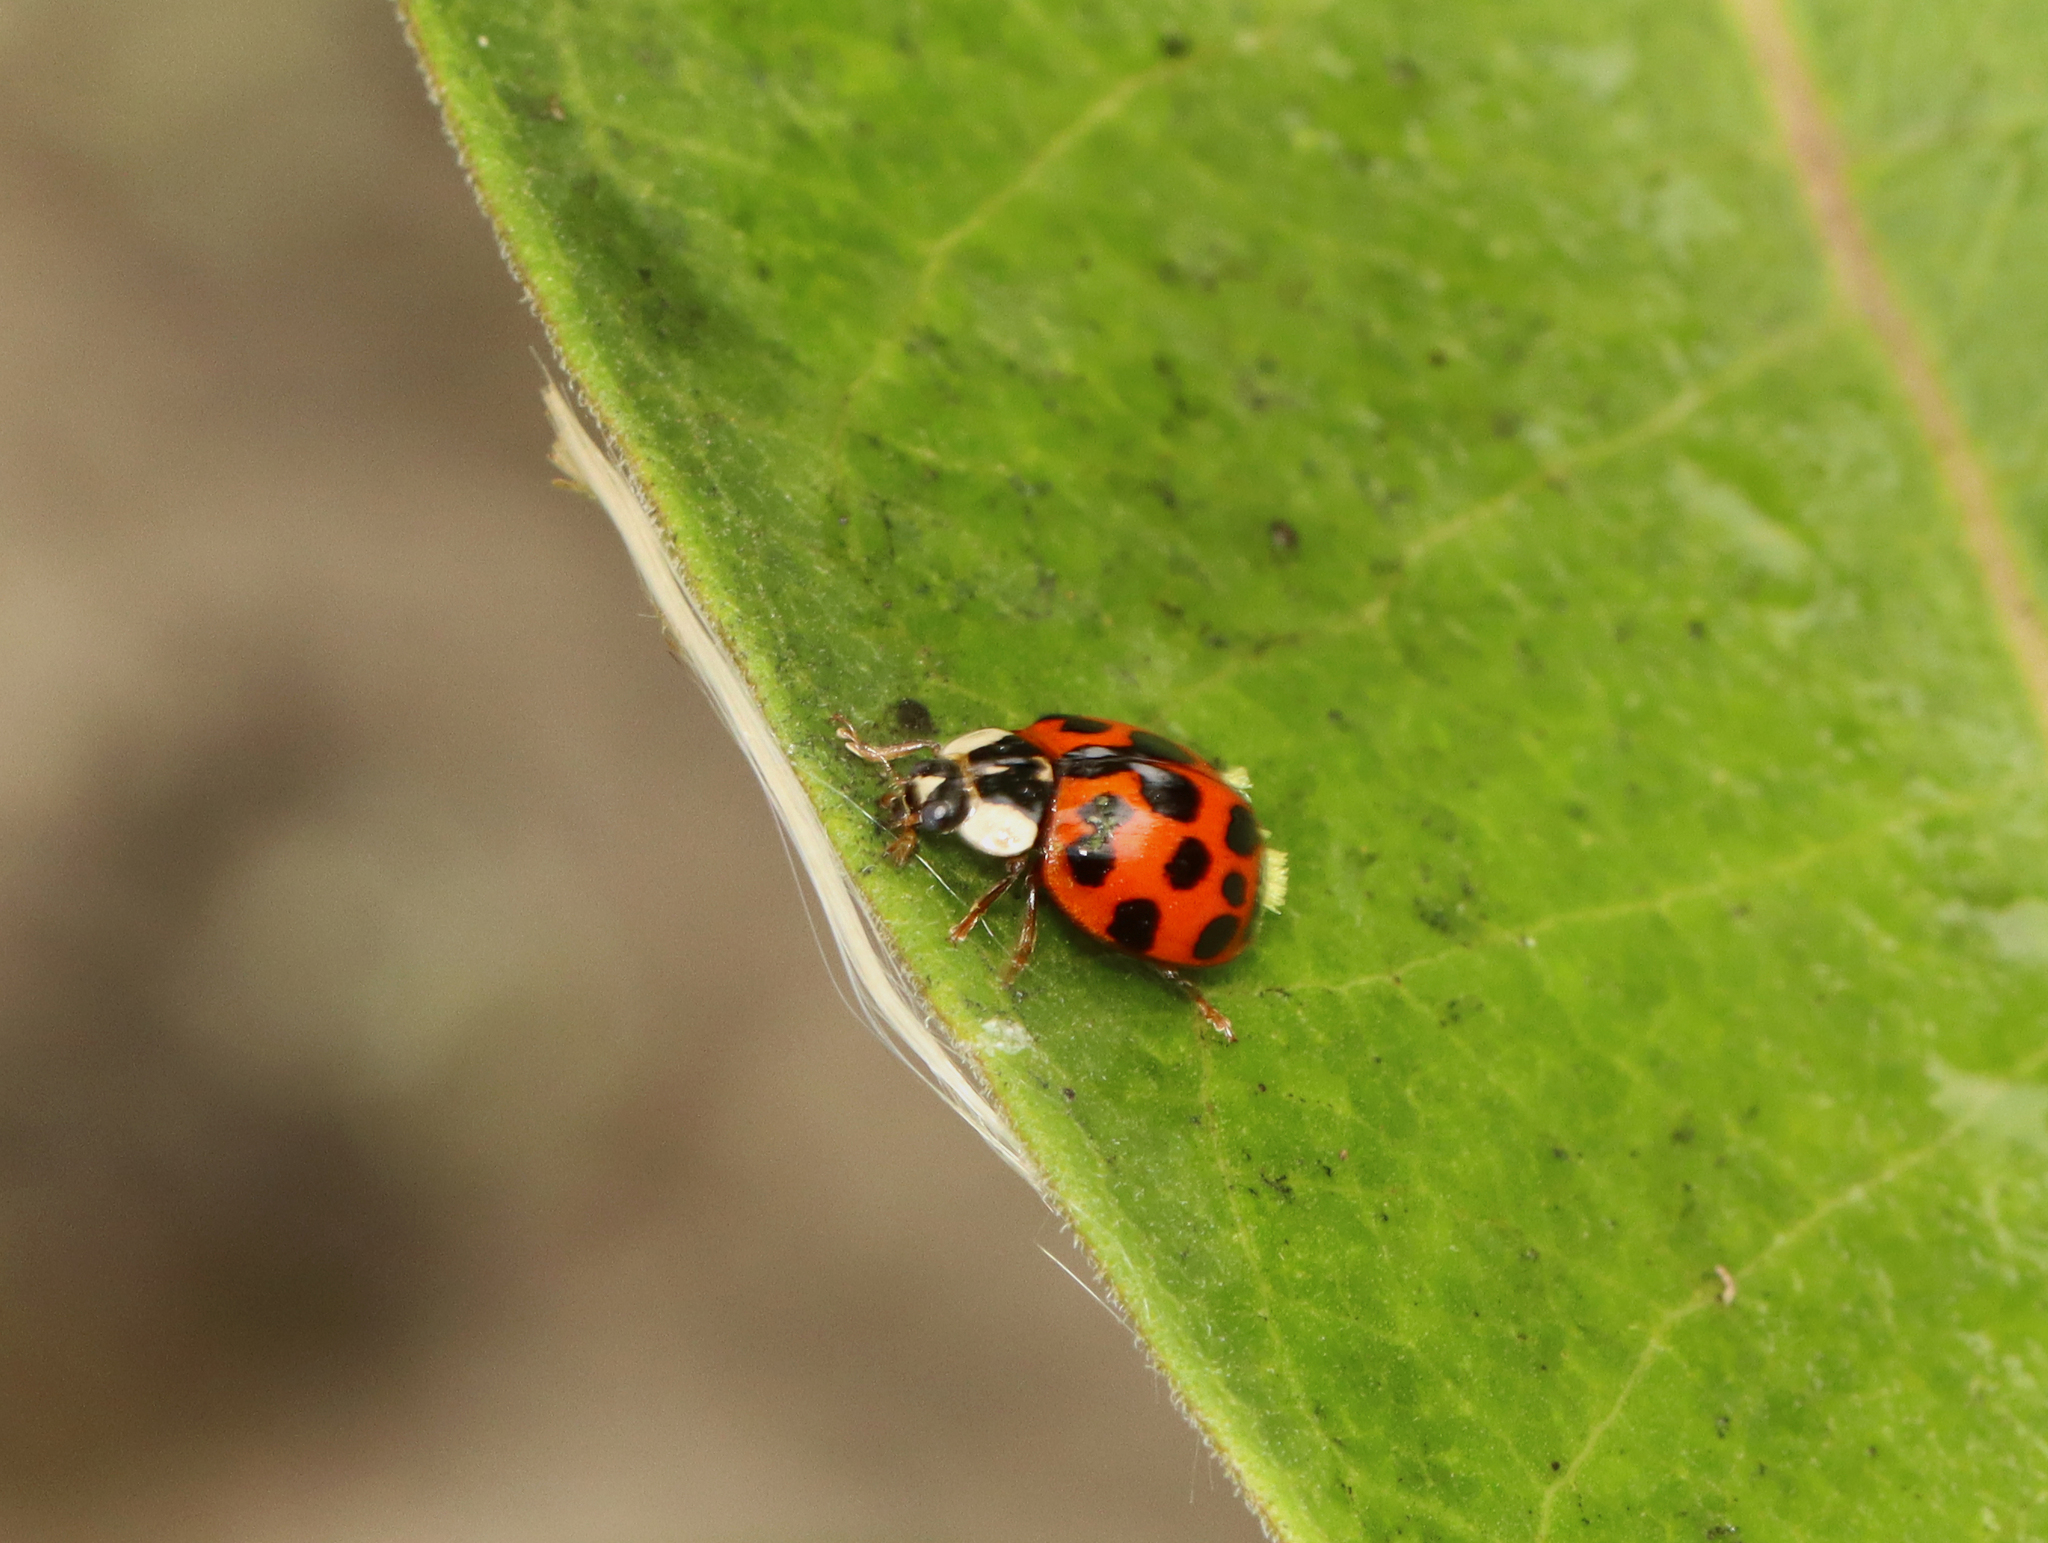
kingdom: Fungi
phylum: Ascomycota
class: Laboulbeniomycetes
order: Laboulbeniales
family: Laboulbeniaceae
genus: Hesperomyces
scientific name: Hesperomyces harmoniae
